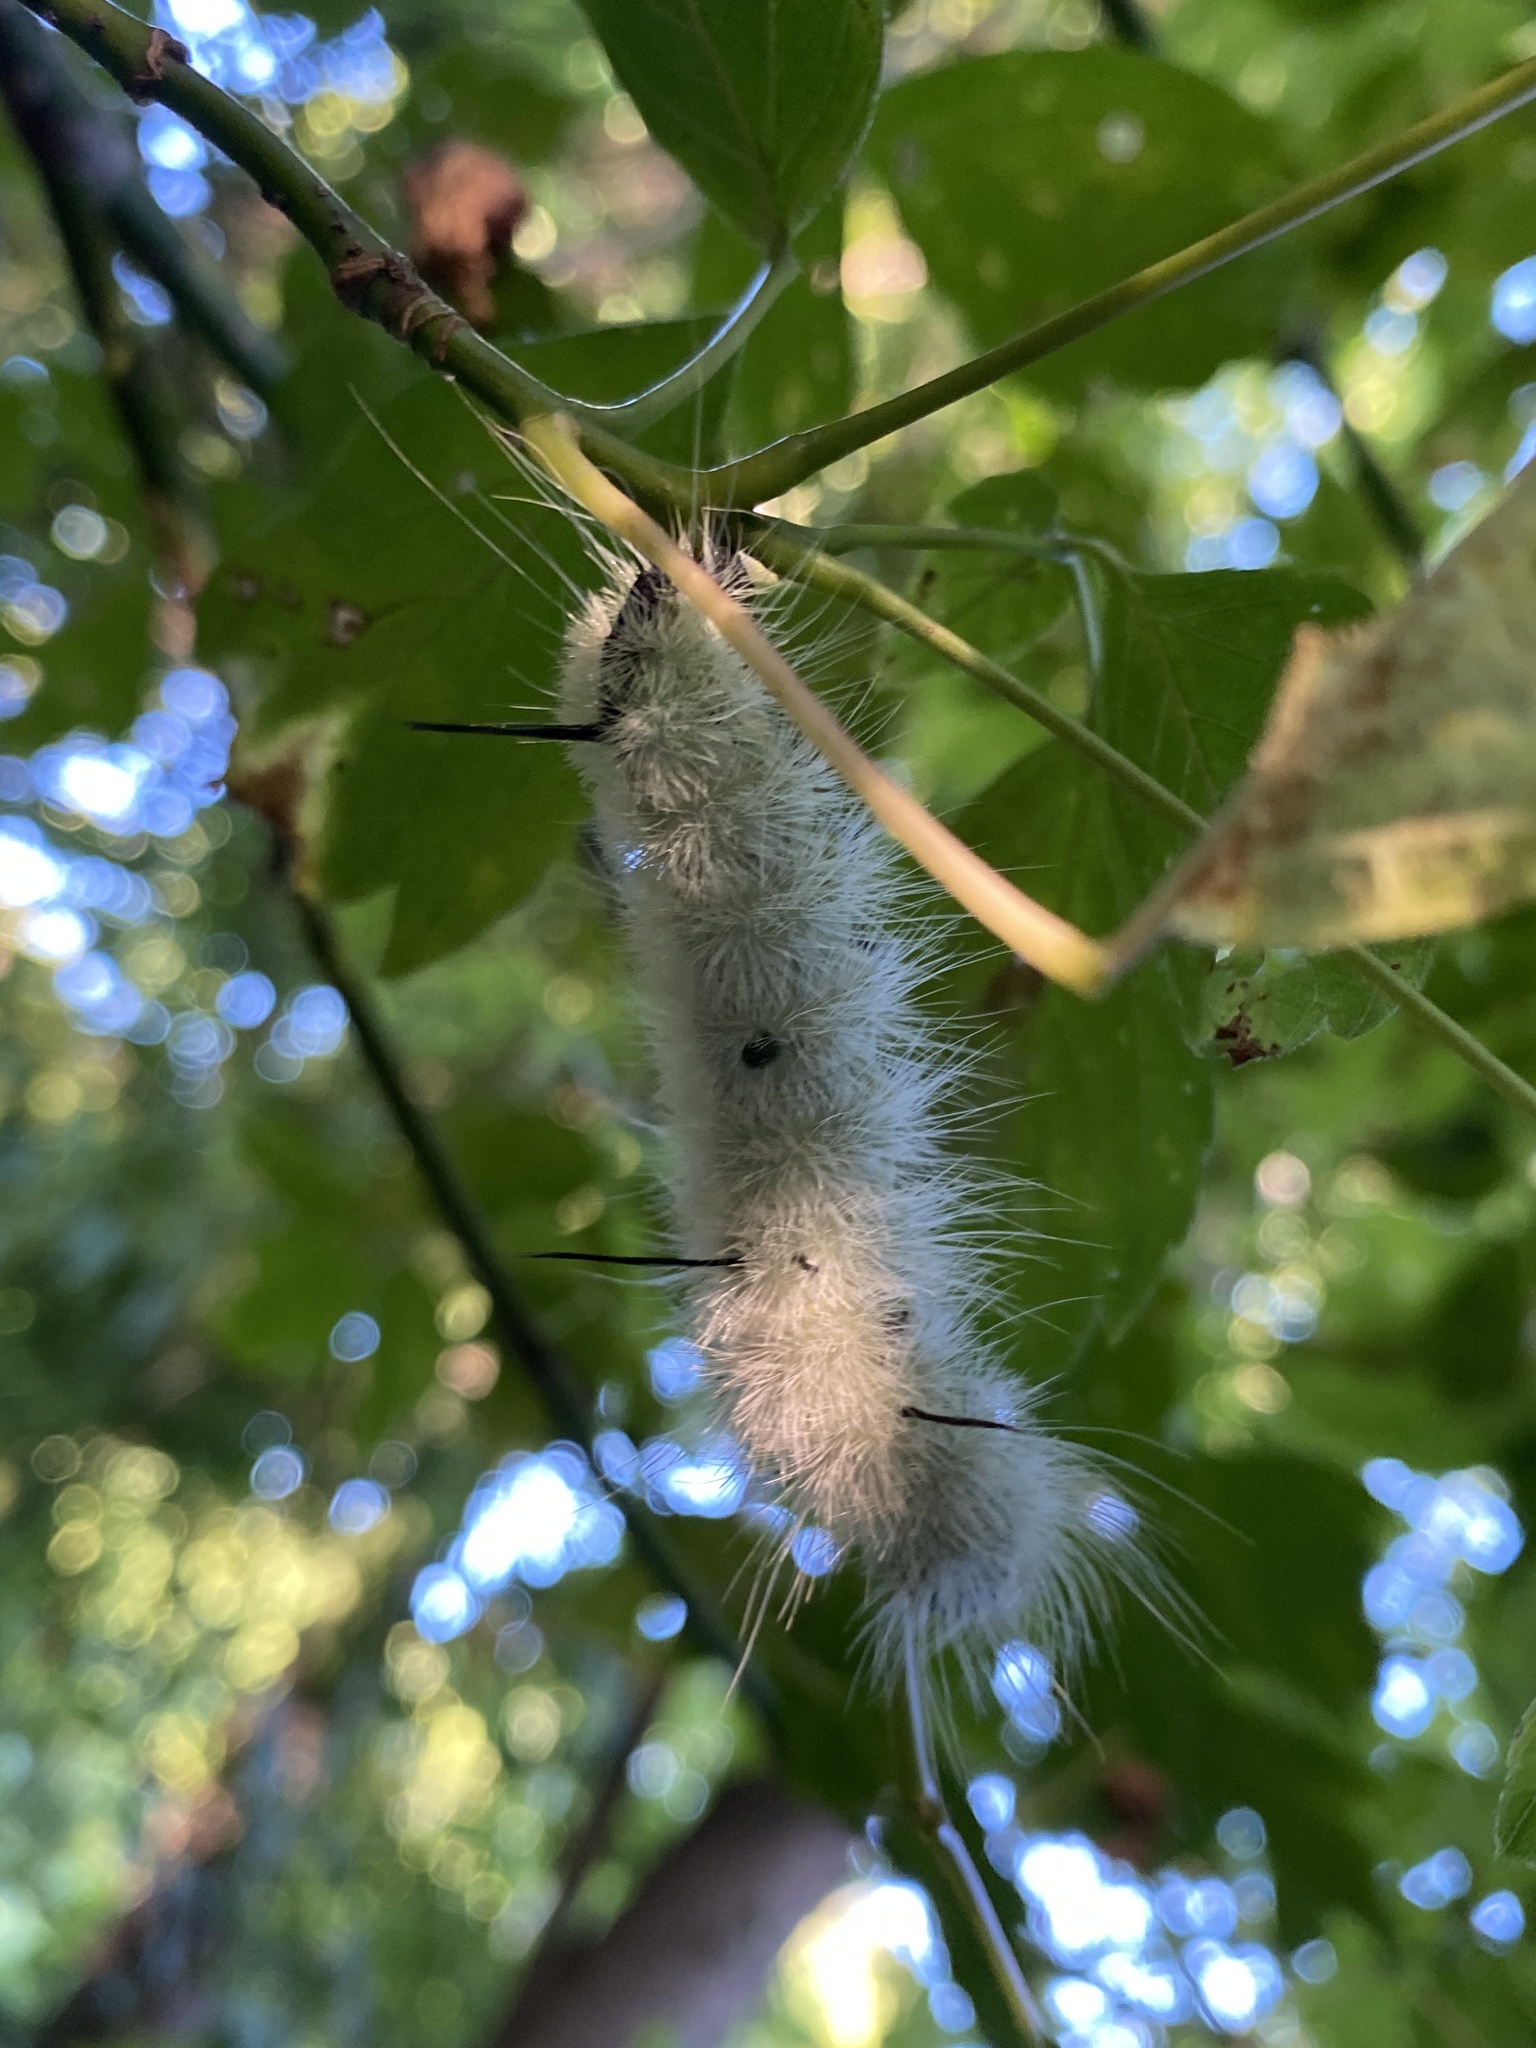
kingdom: Animalia
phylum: Arthropoda
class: Insecta
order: Lepidoptera
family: Noctuidae
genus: Acronicta
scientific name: Acronicta americana
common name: American dagger
